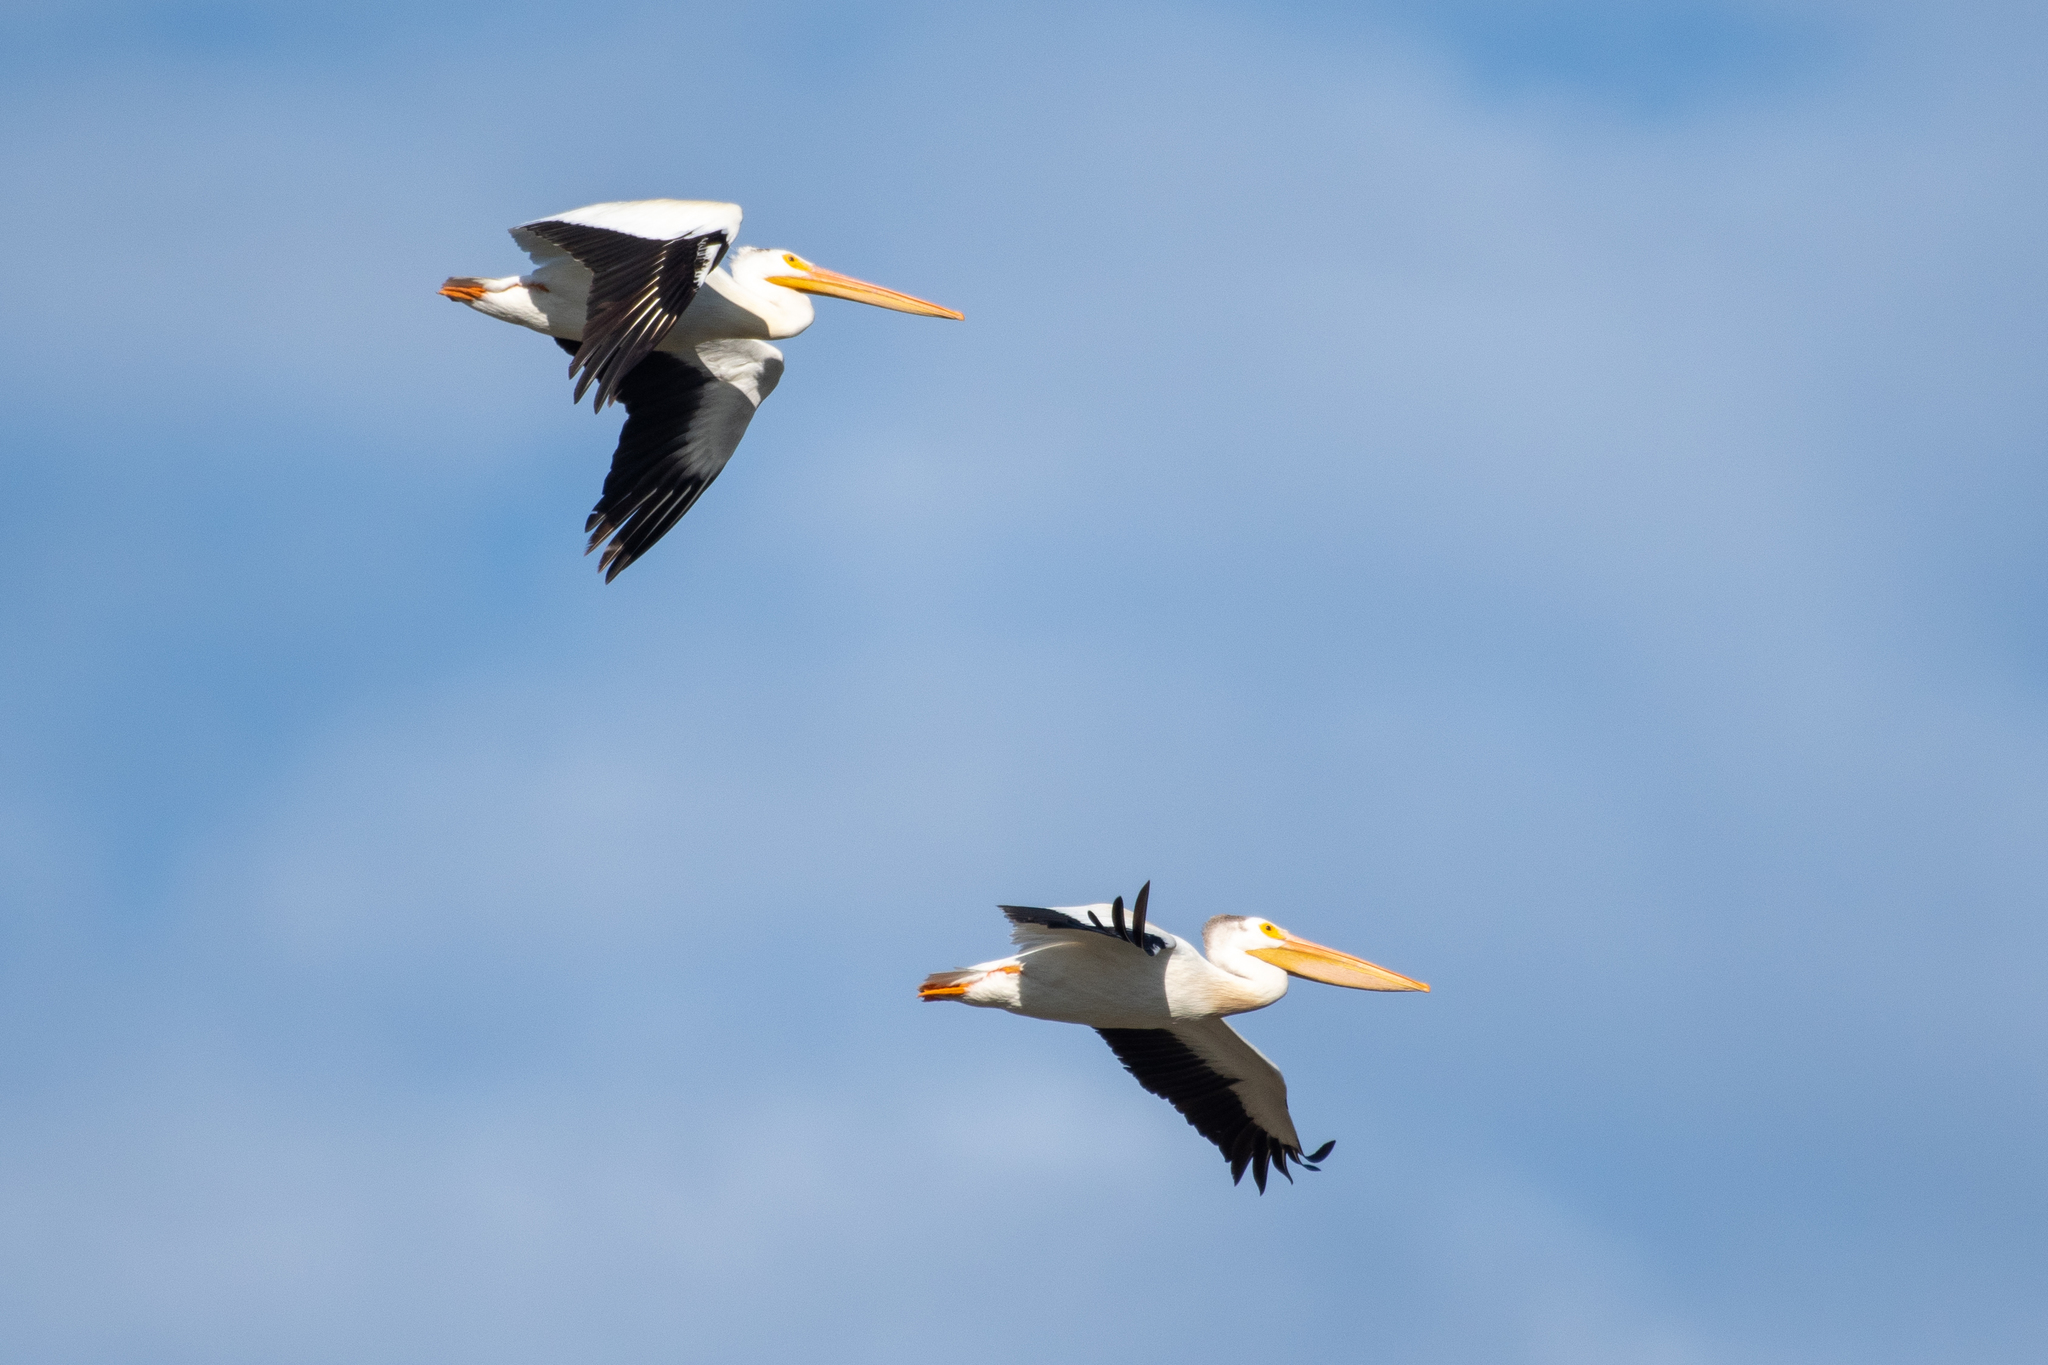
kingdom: Animalia
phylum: Chordata
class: Aves
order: Pelecaniformes
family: Pelecanidae
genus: Pelecanus
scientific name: Pelecanus erythrorhynchos
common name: American white pelican
